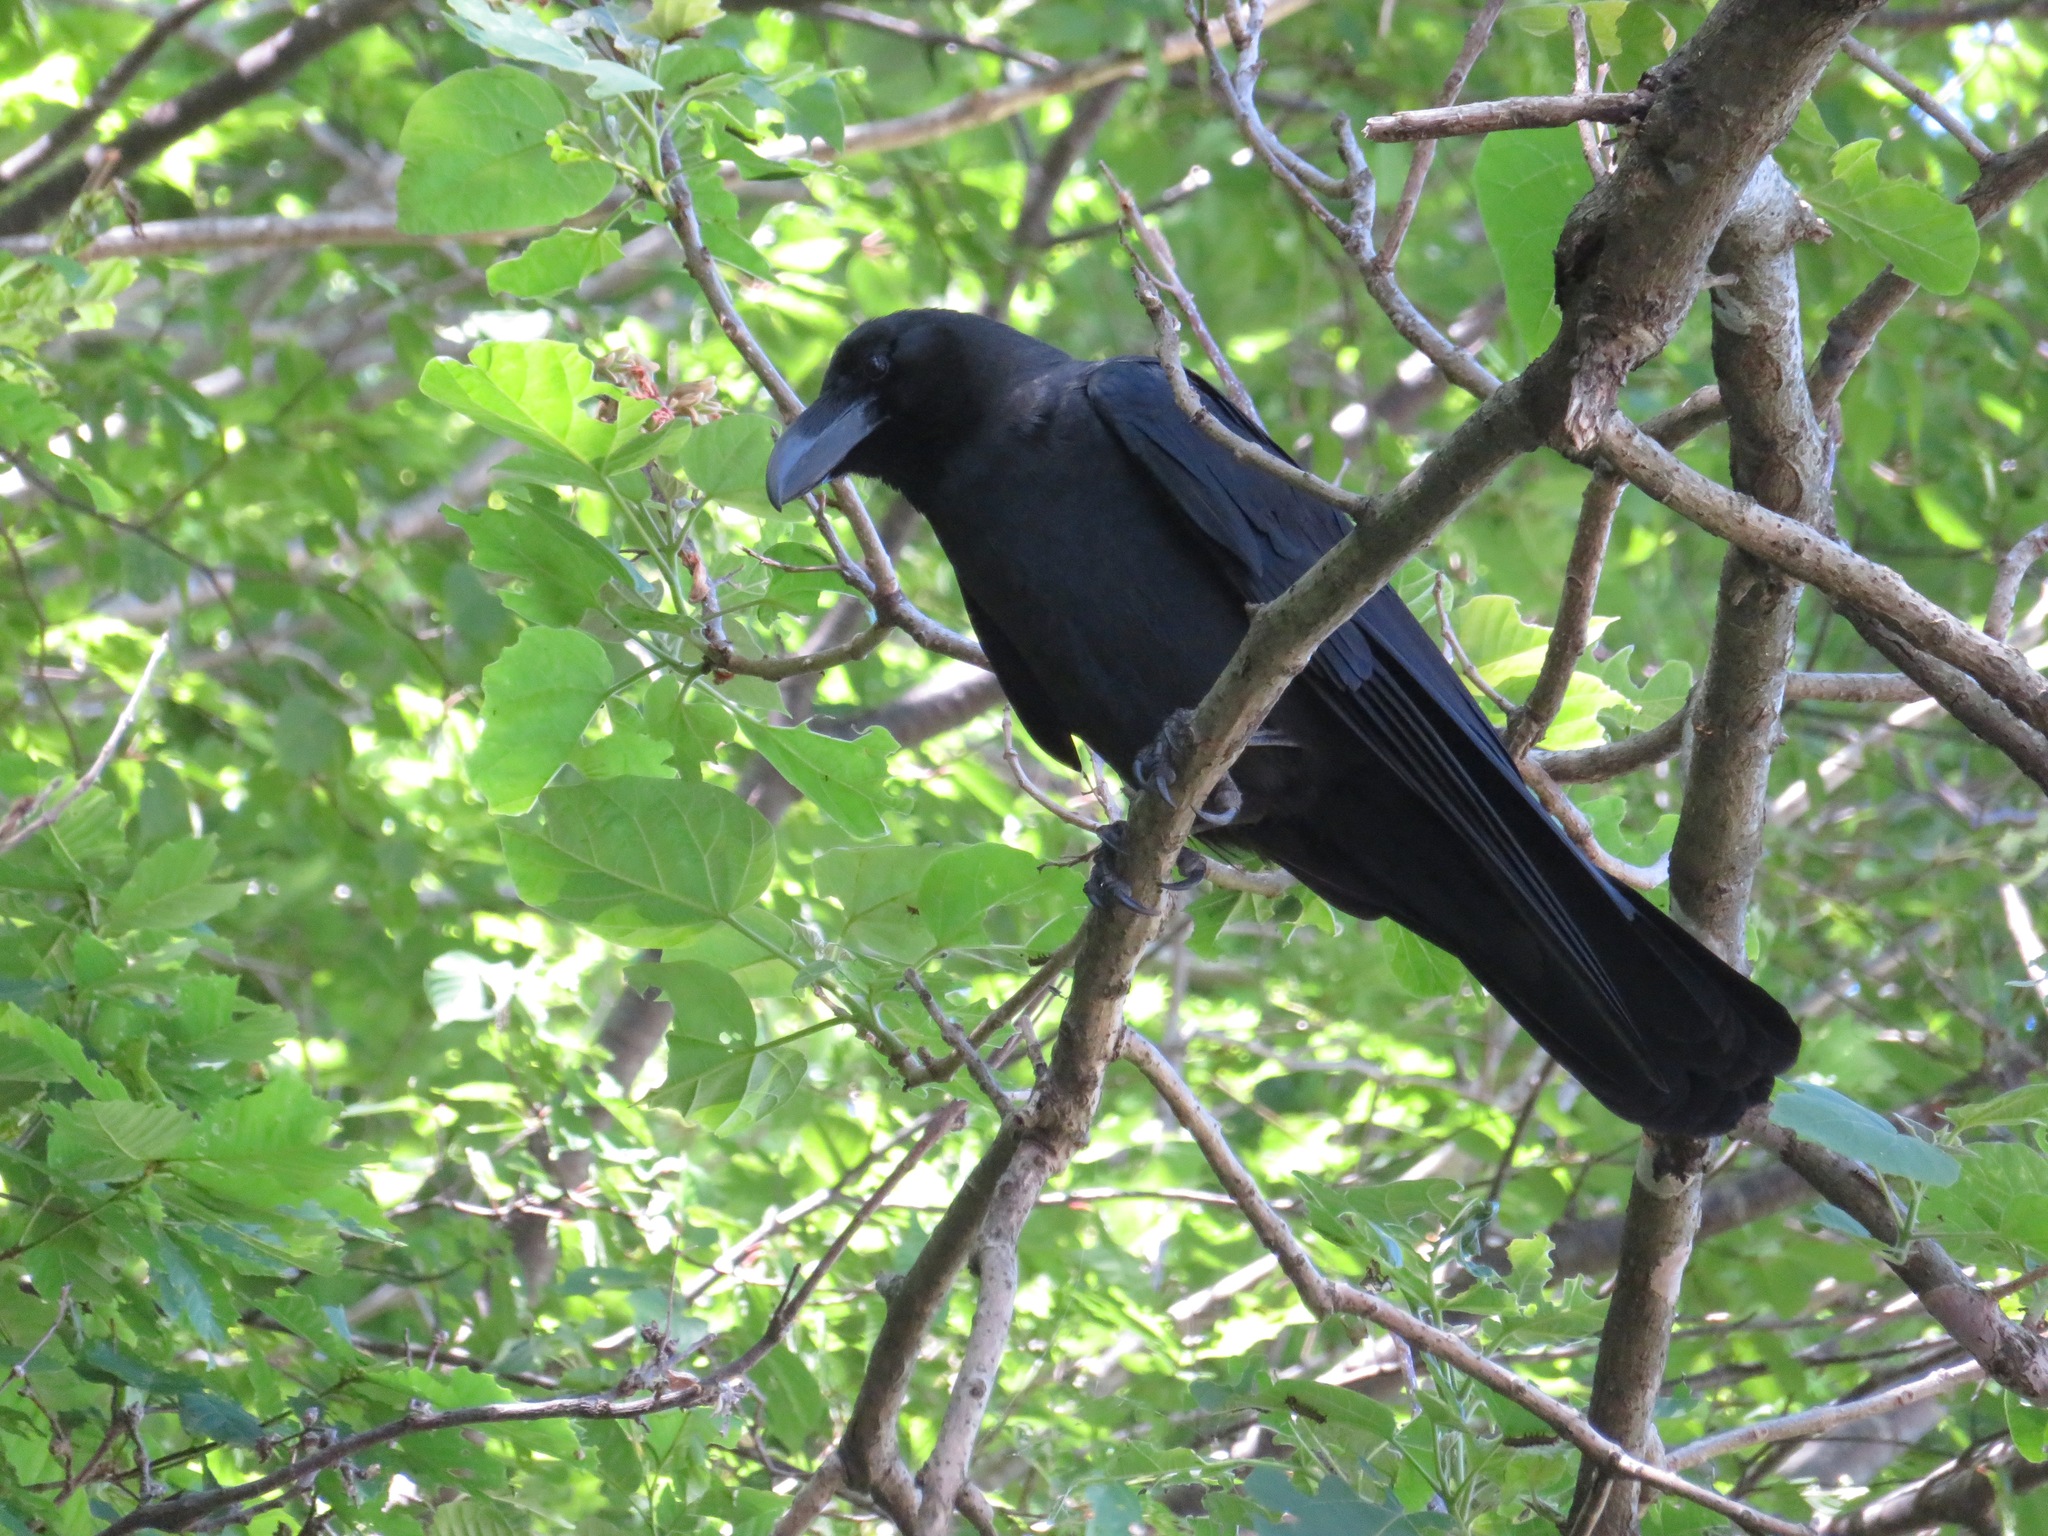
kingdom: Animalia
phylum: Chordata
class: Aves
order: Passeriformes
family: Corvidae
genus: Corvus
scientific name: Corvus macrorhynchos
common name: Large-billed crow
